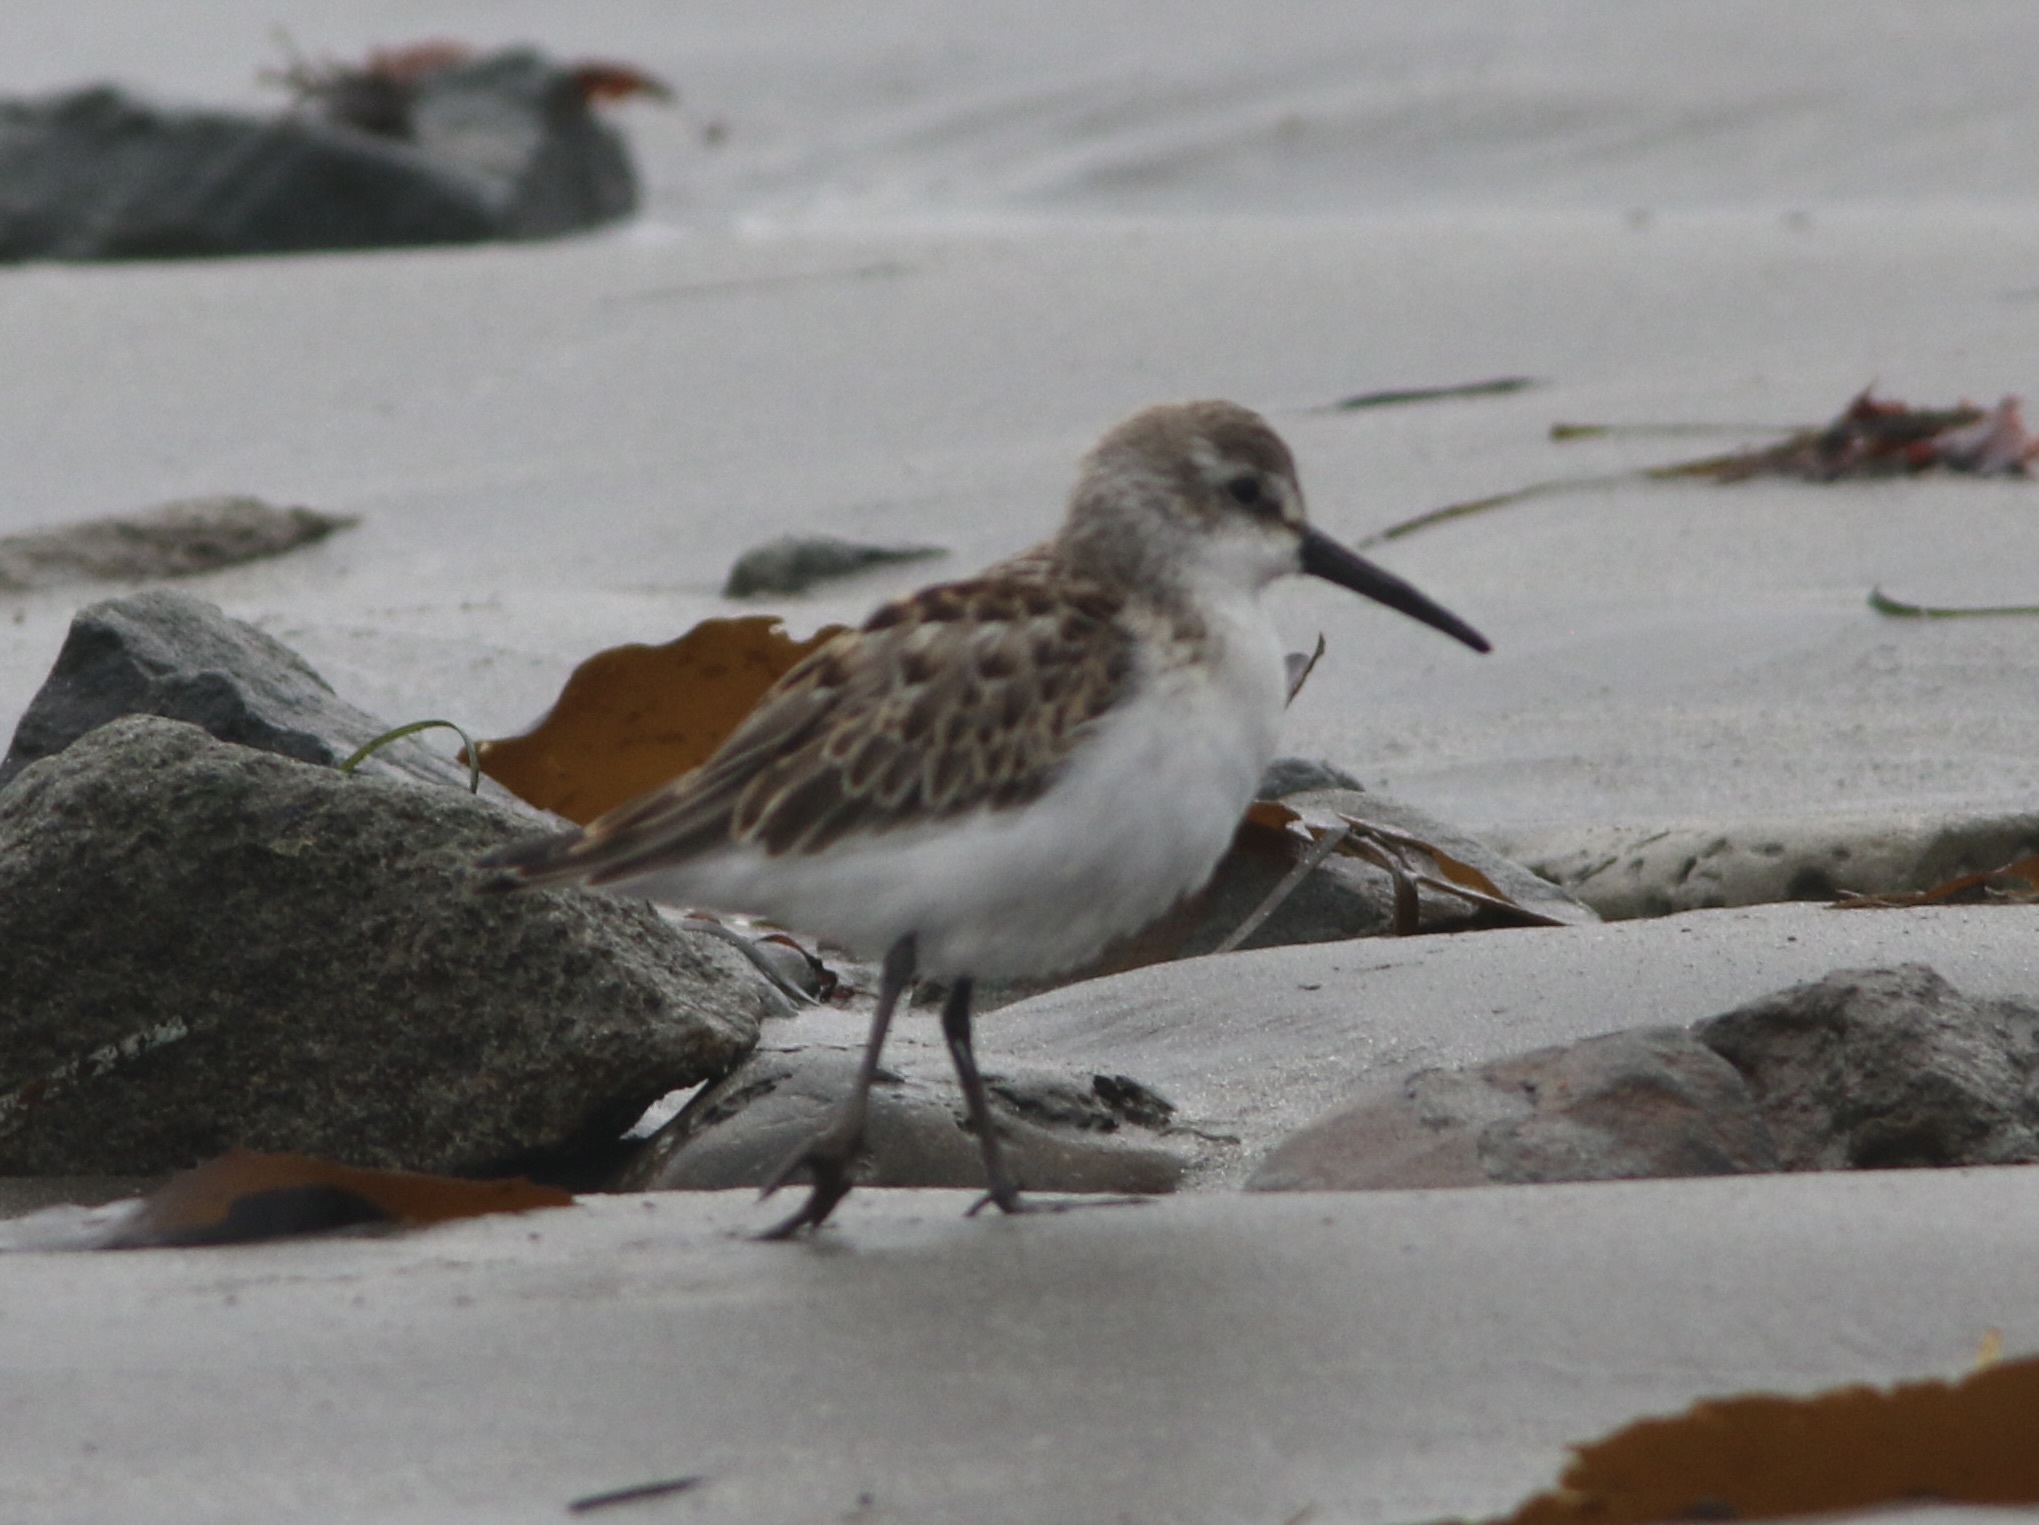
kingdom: Animalia
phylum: Chordata
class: Aves
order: Charadriiformes
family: Scolopacidae
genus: Calidris
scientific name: Calidris mauri
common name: Western sandpiper
